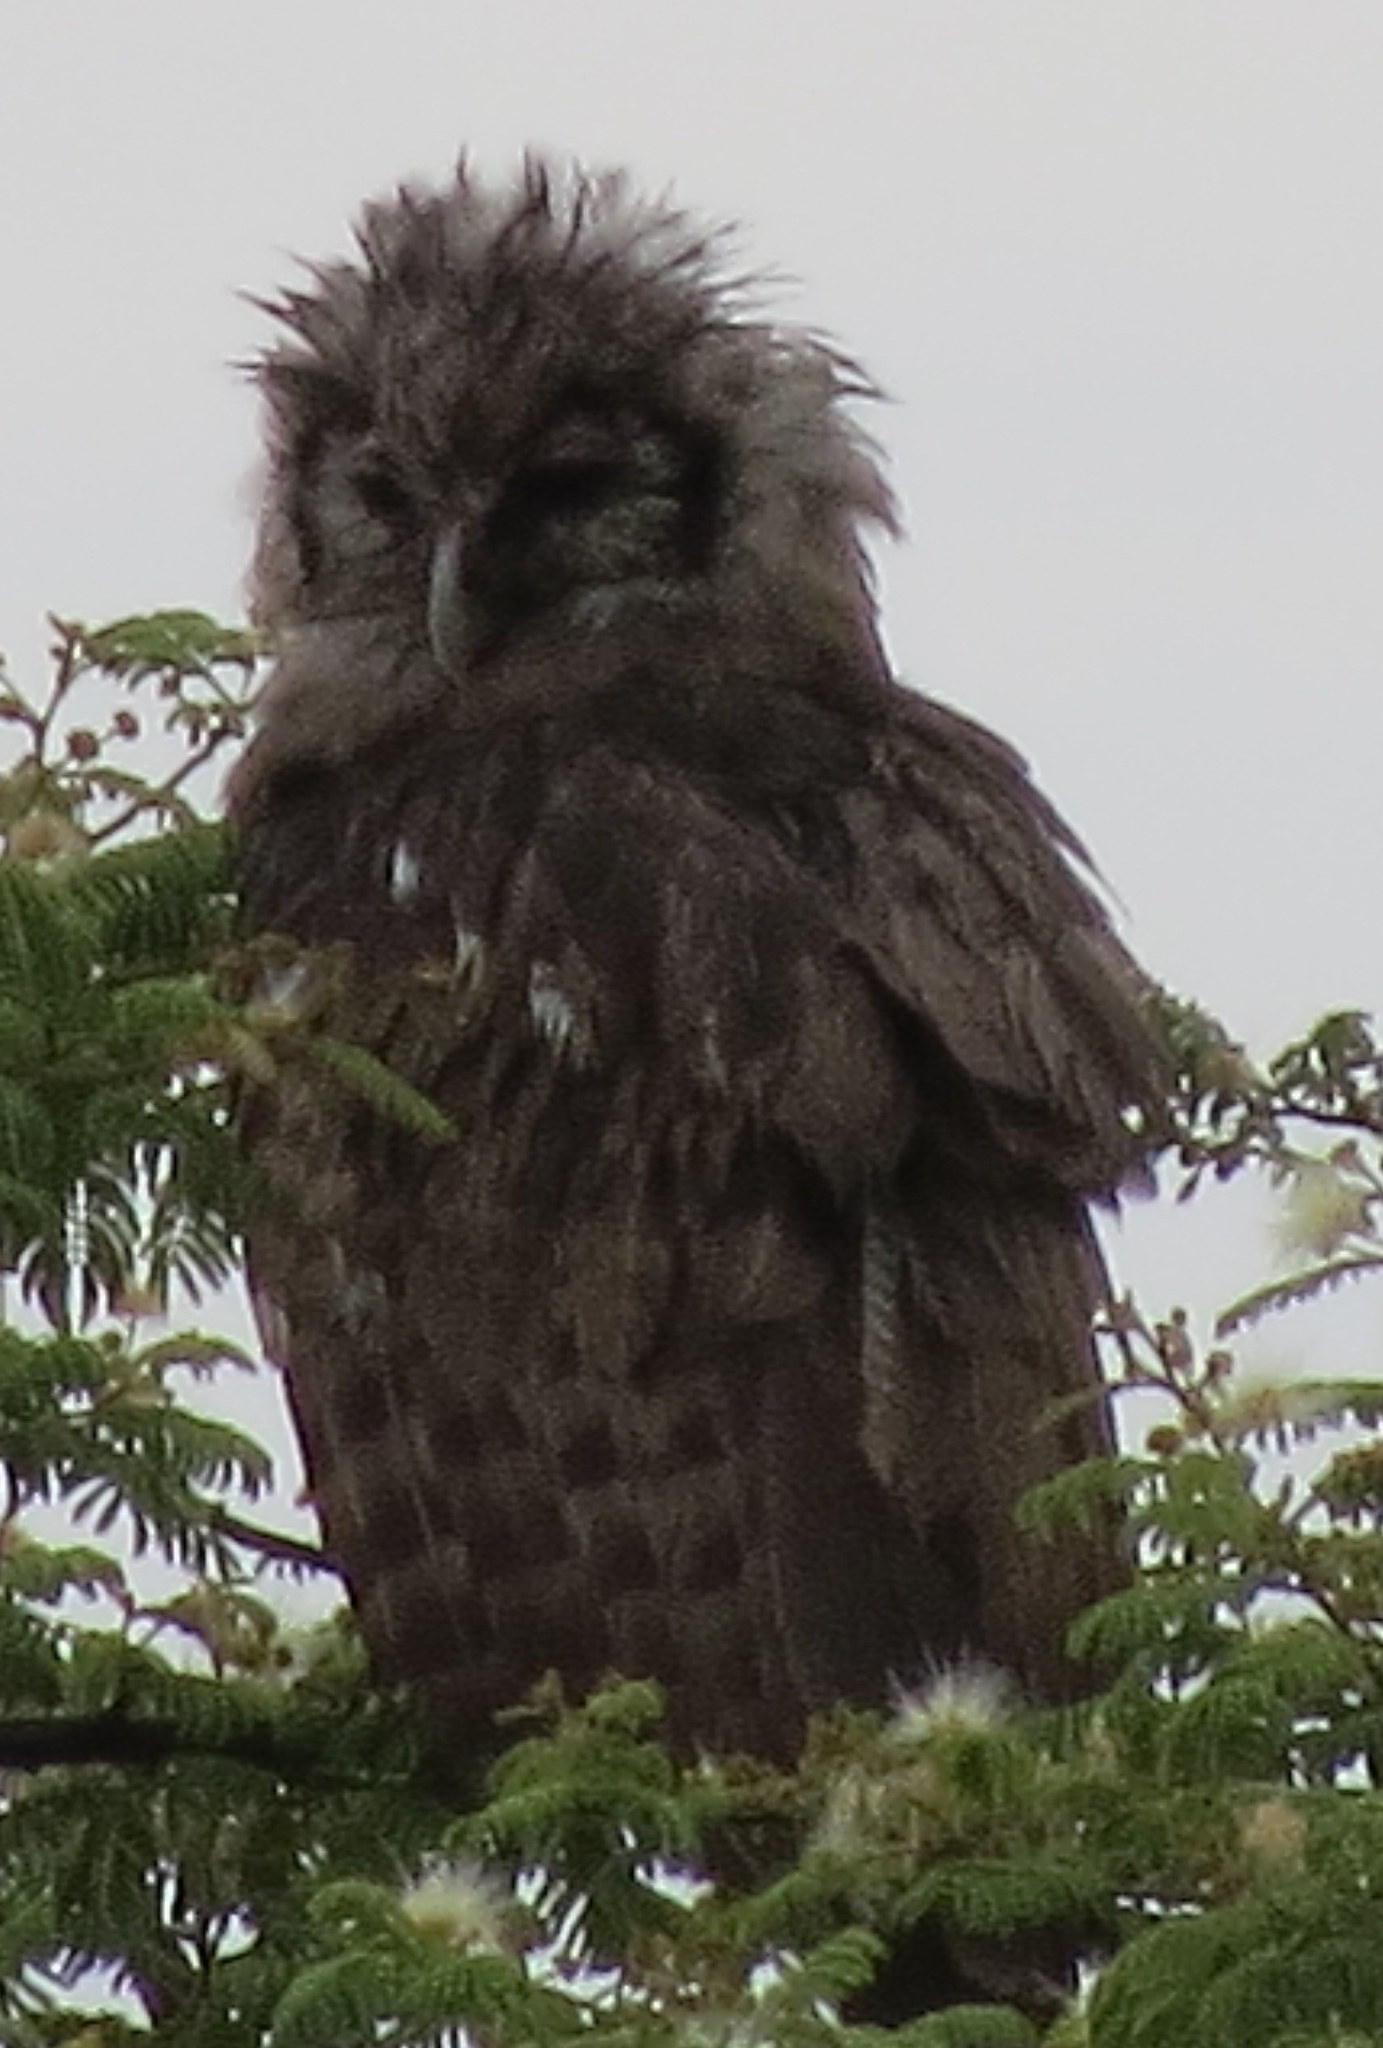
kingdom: Animalia
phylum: Chordata
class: Aves
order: Strigiformes
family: Strigidae
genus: Bubo
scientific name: Bubo lacteus
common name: Verreaux's eagle-owl
